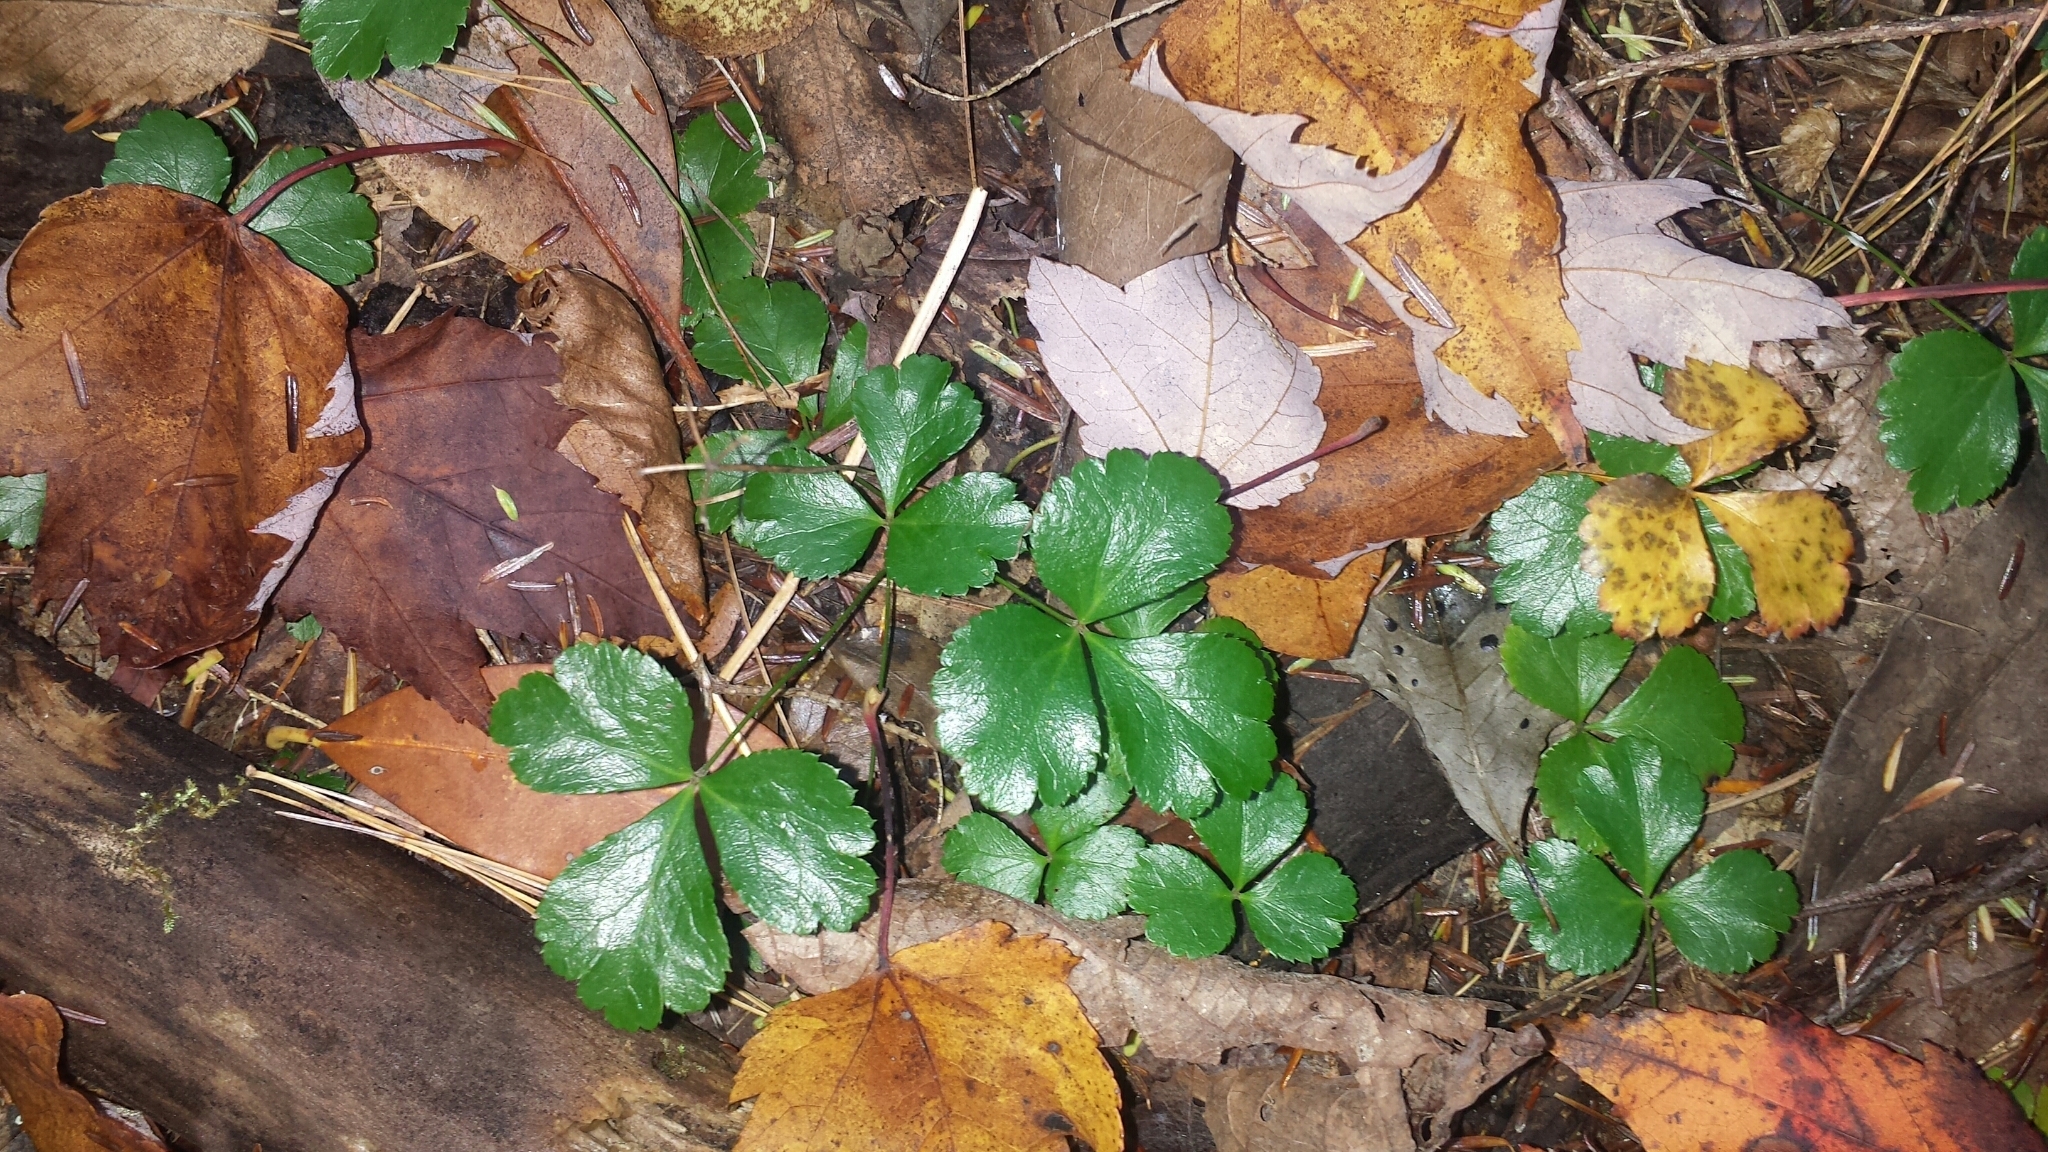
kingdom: Plantae
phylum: Tracheophyta
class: Magnoliopsida
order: Ranunculales
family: Ranunculaceae
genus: Coptis
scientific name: Coptis trifolia
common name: Canker-root
